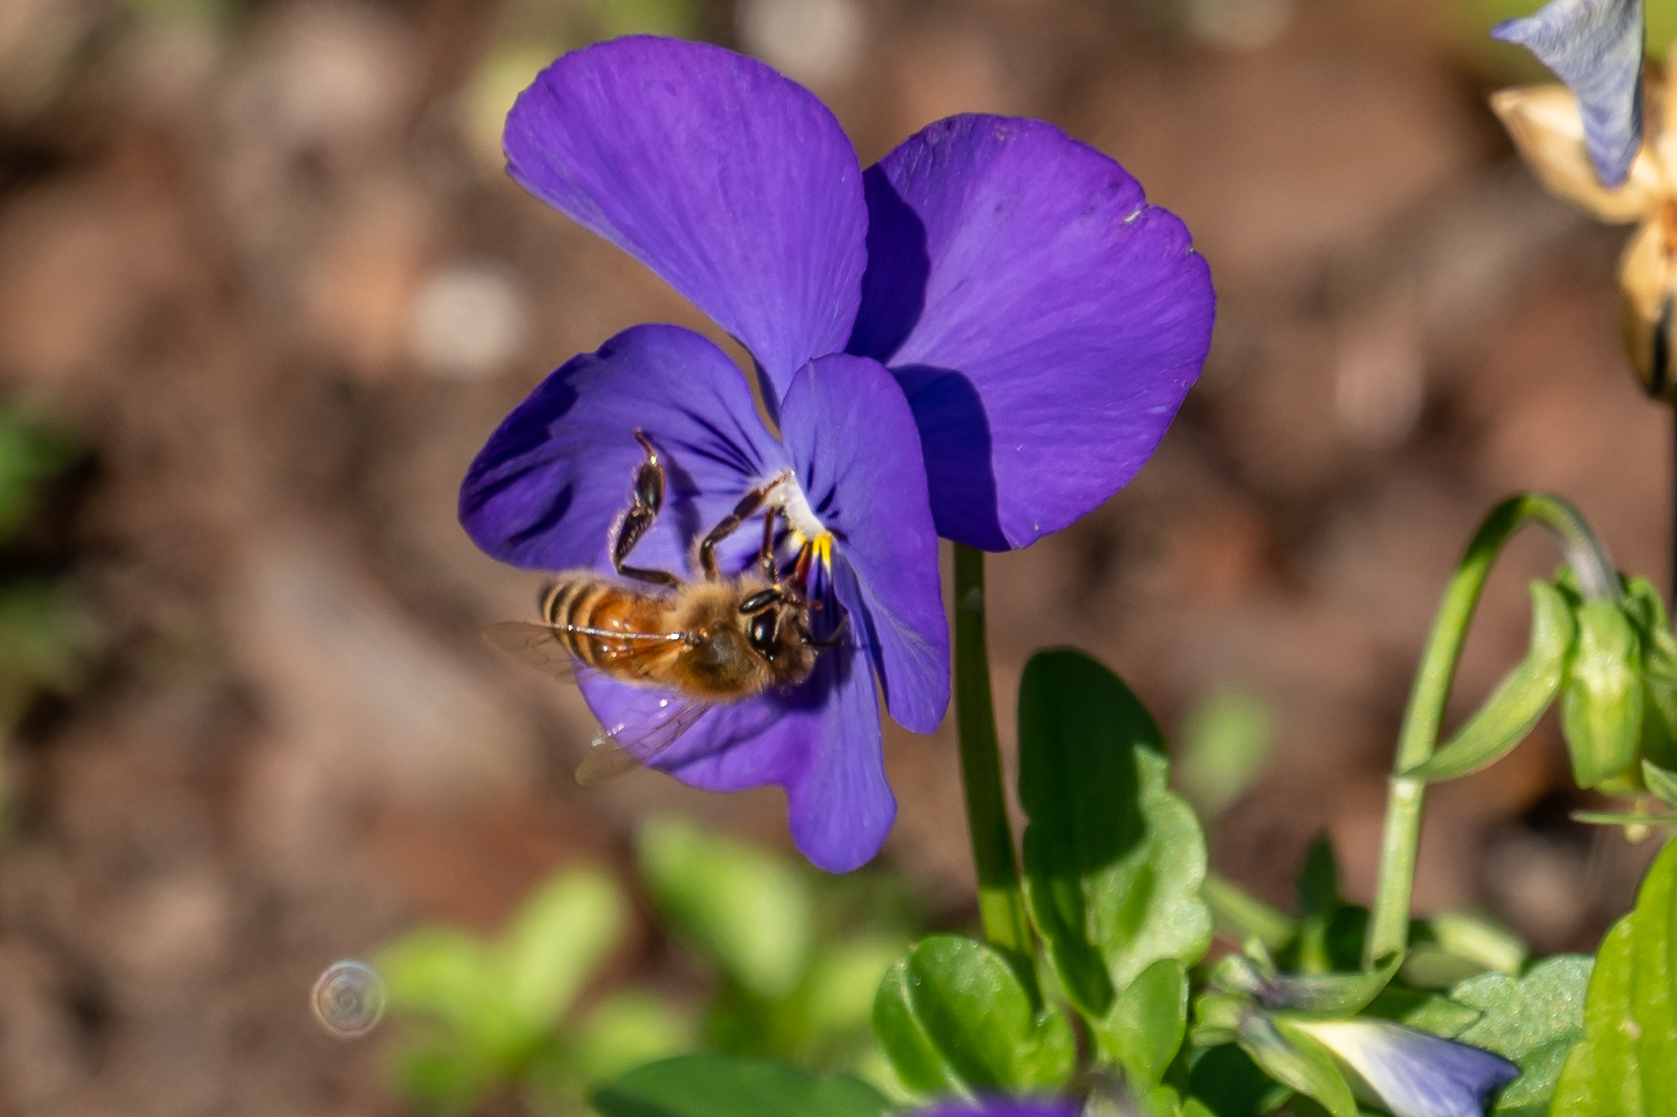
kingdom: Animalia
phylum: Arthropoda
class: Insecta
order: Hymenoptera
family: Apidae
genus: Apis
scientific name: Apis mellifera
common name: Honey bee
